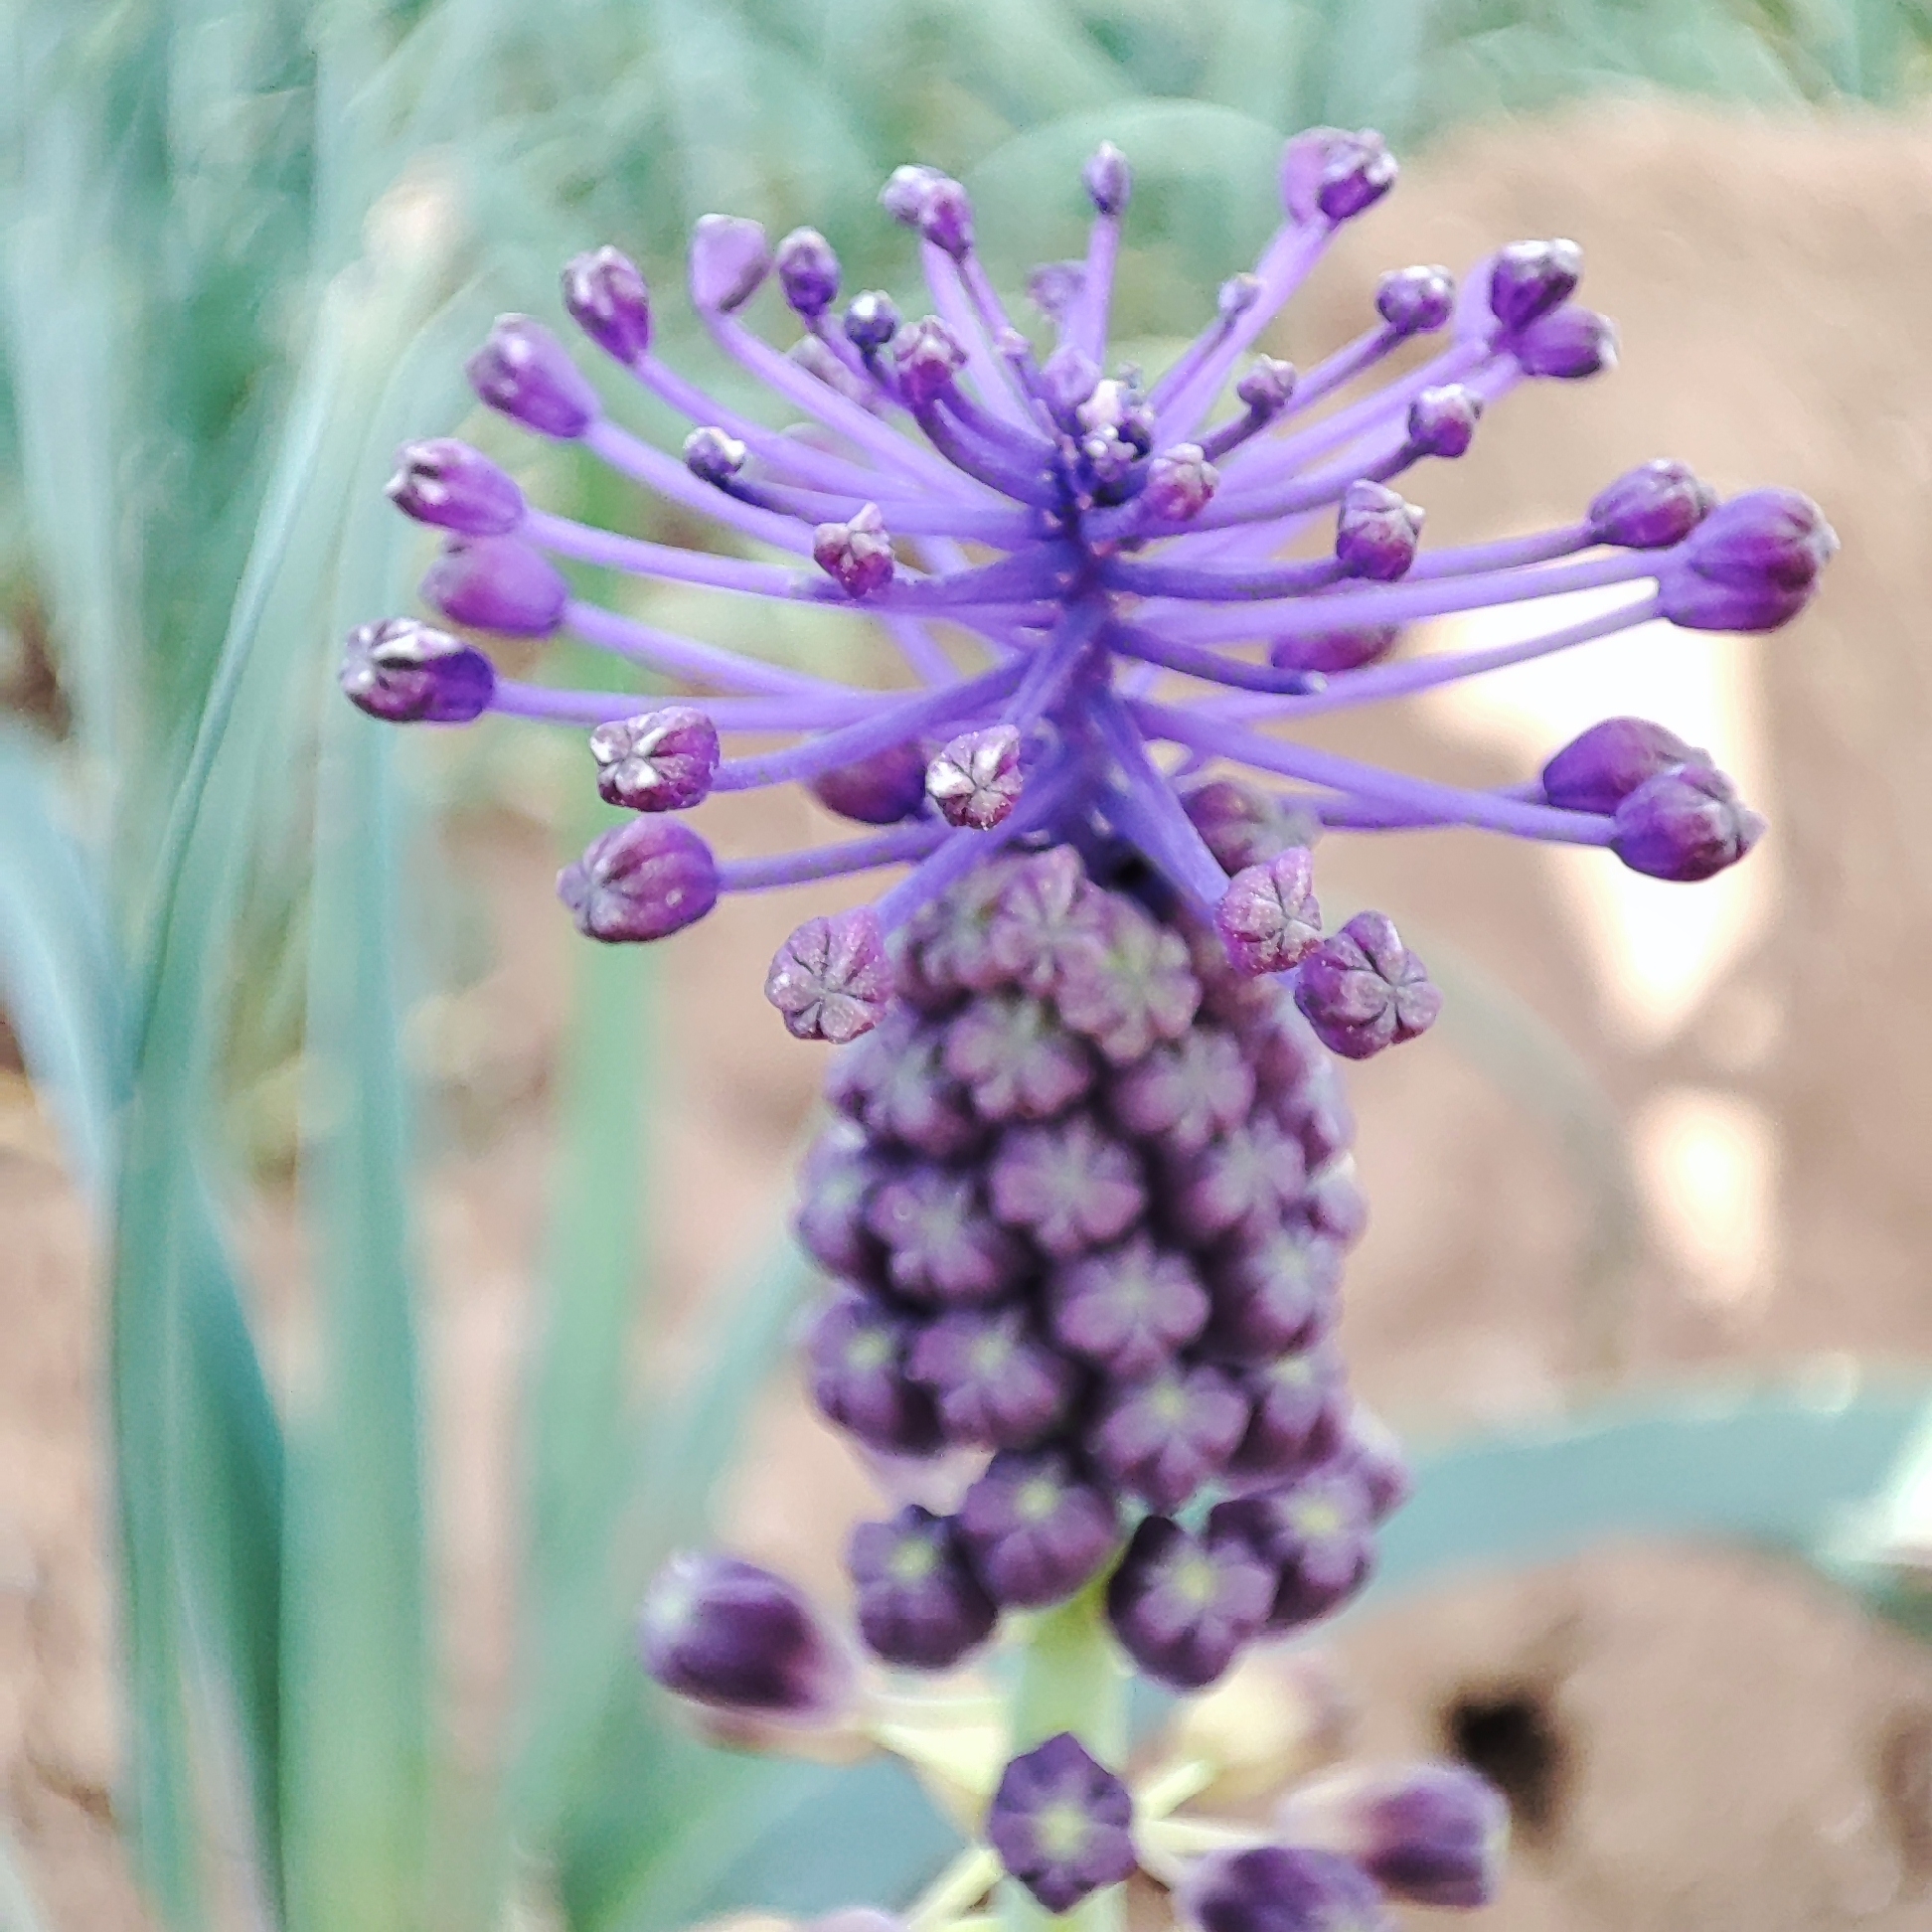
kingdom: Plantae
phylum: Tracheophyta
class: Liliopsida
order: Asparagales
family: Asparagaceae
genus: Muscari
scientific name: Muscari comosum
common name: Tassel hyacinth
